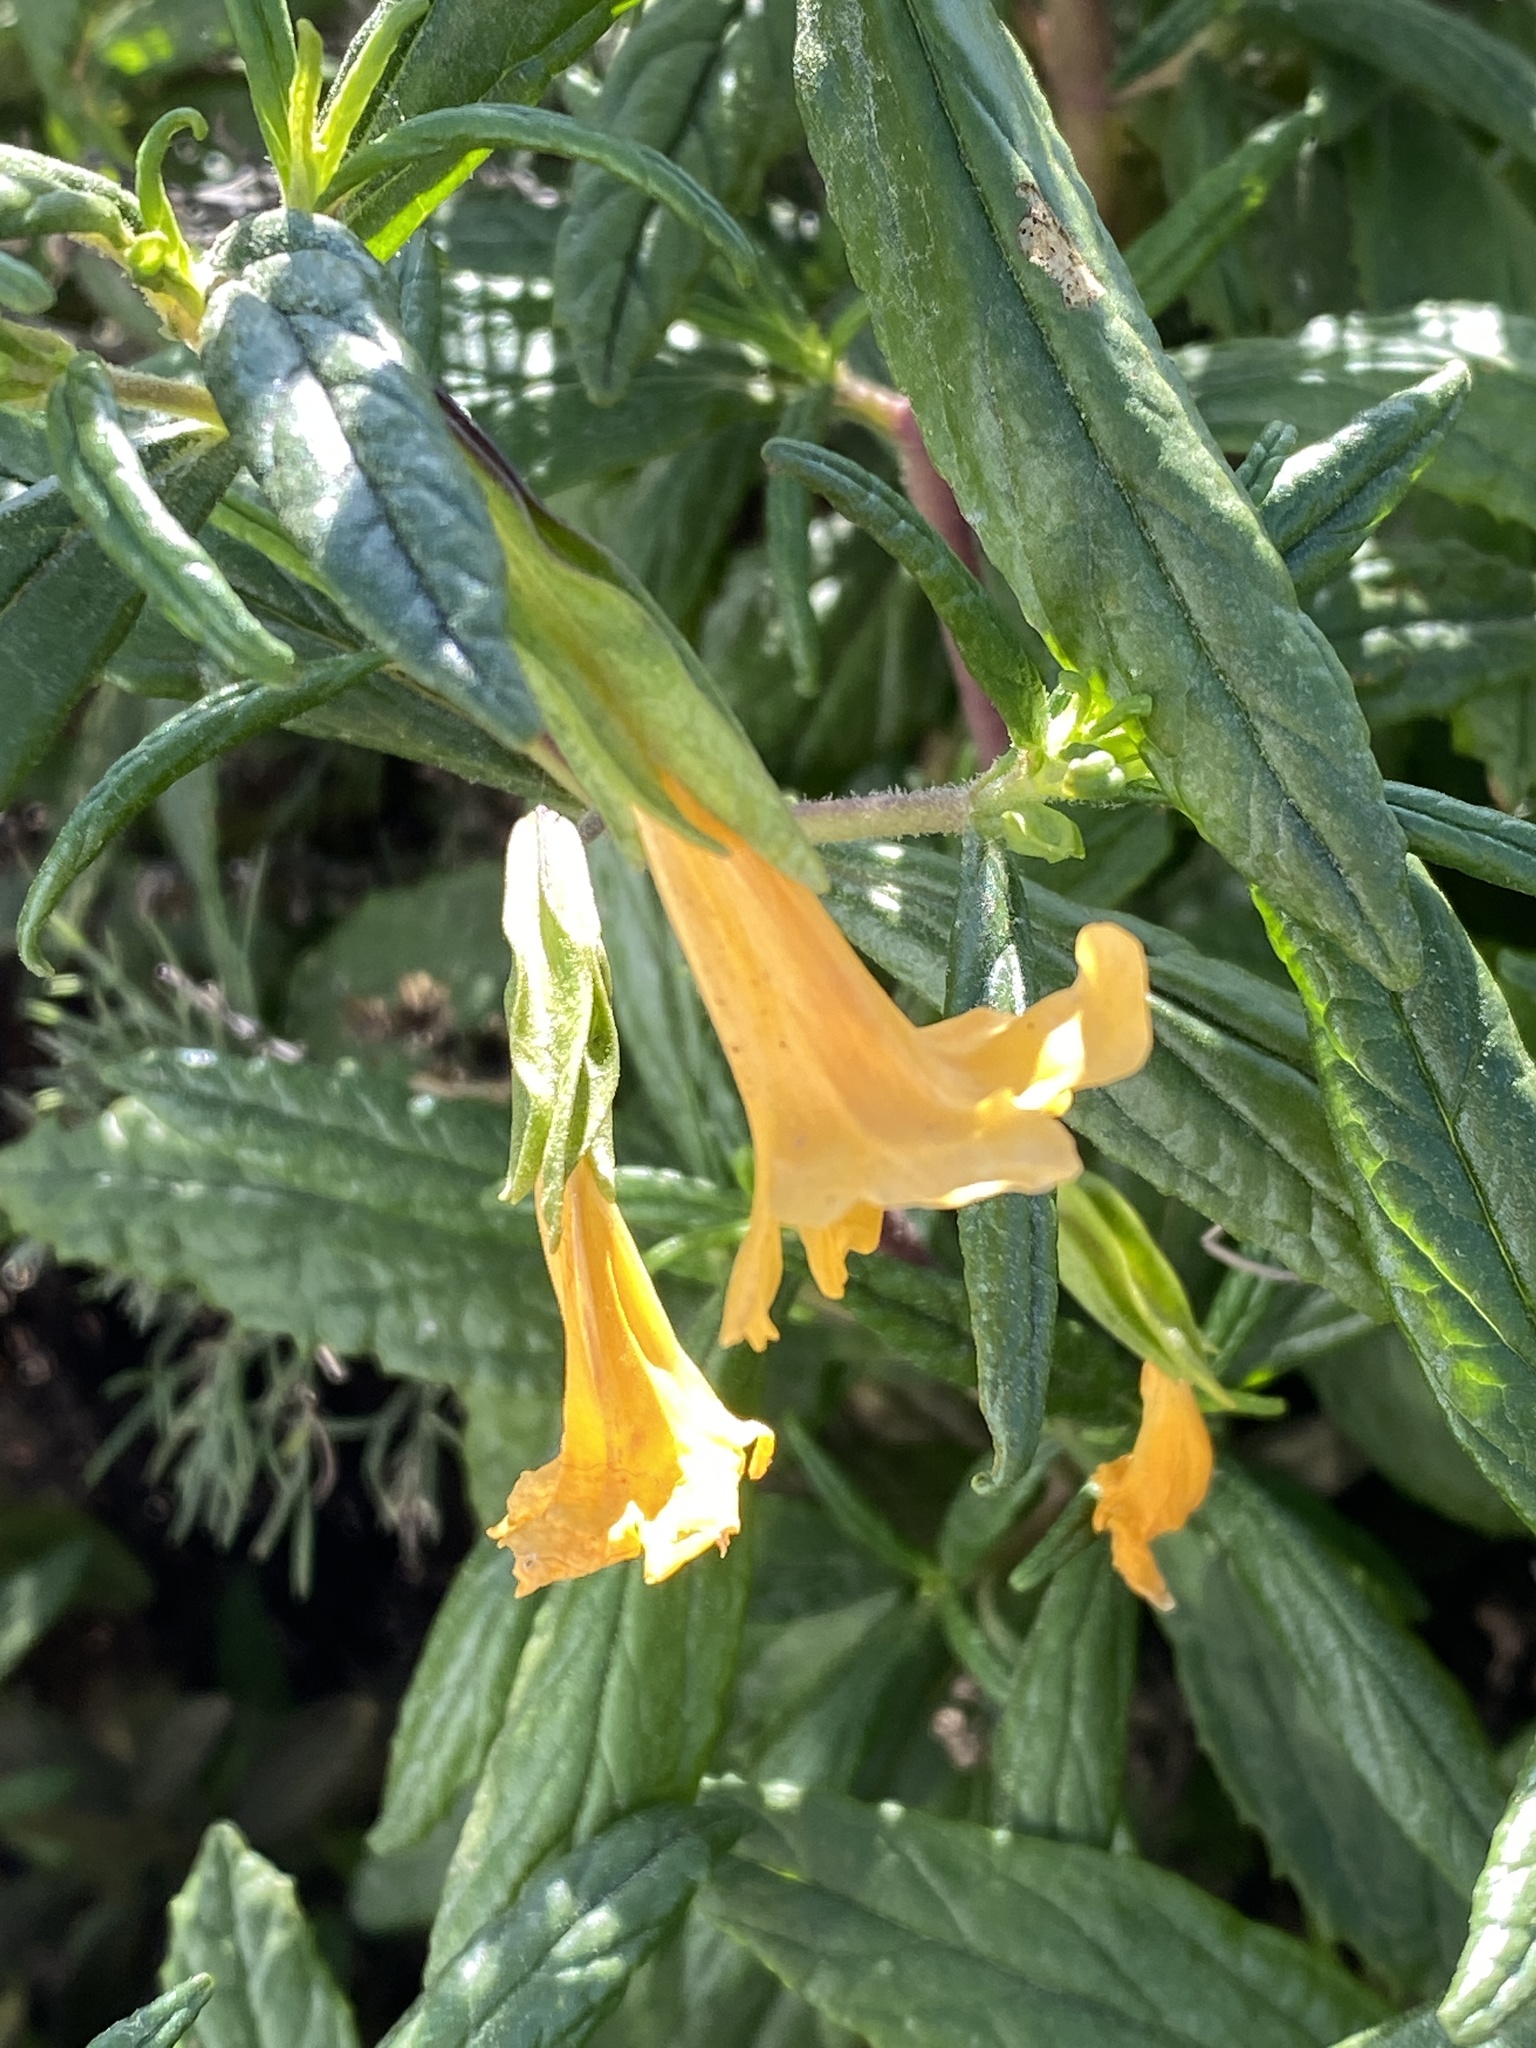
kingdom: Plantae
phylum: Tracheophyta
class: Magnoliopsida
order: Lamiales
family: Phrymaceae
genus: Diplacus
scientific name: Diplacus aurantiacus
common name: Bush monkey-flower
